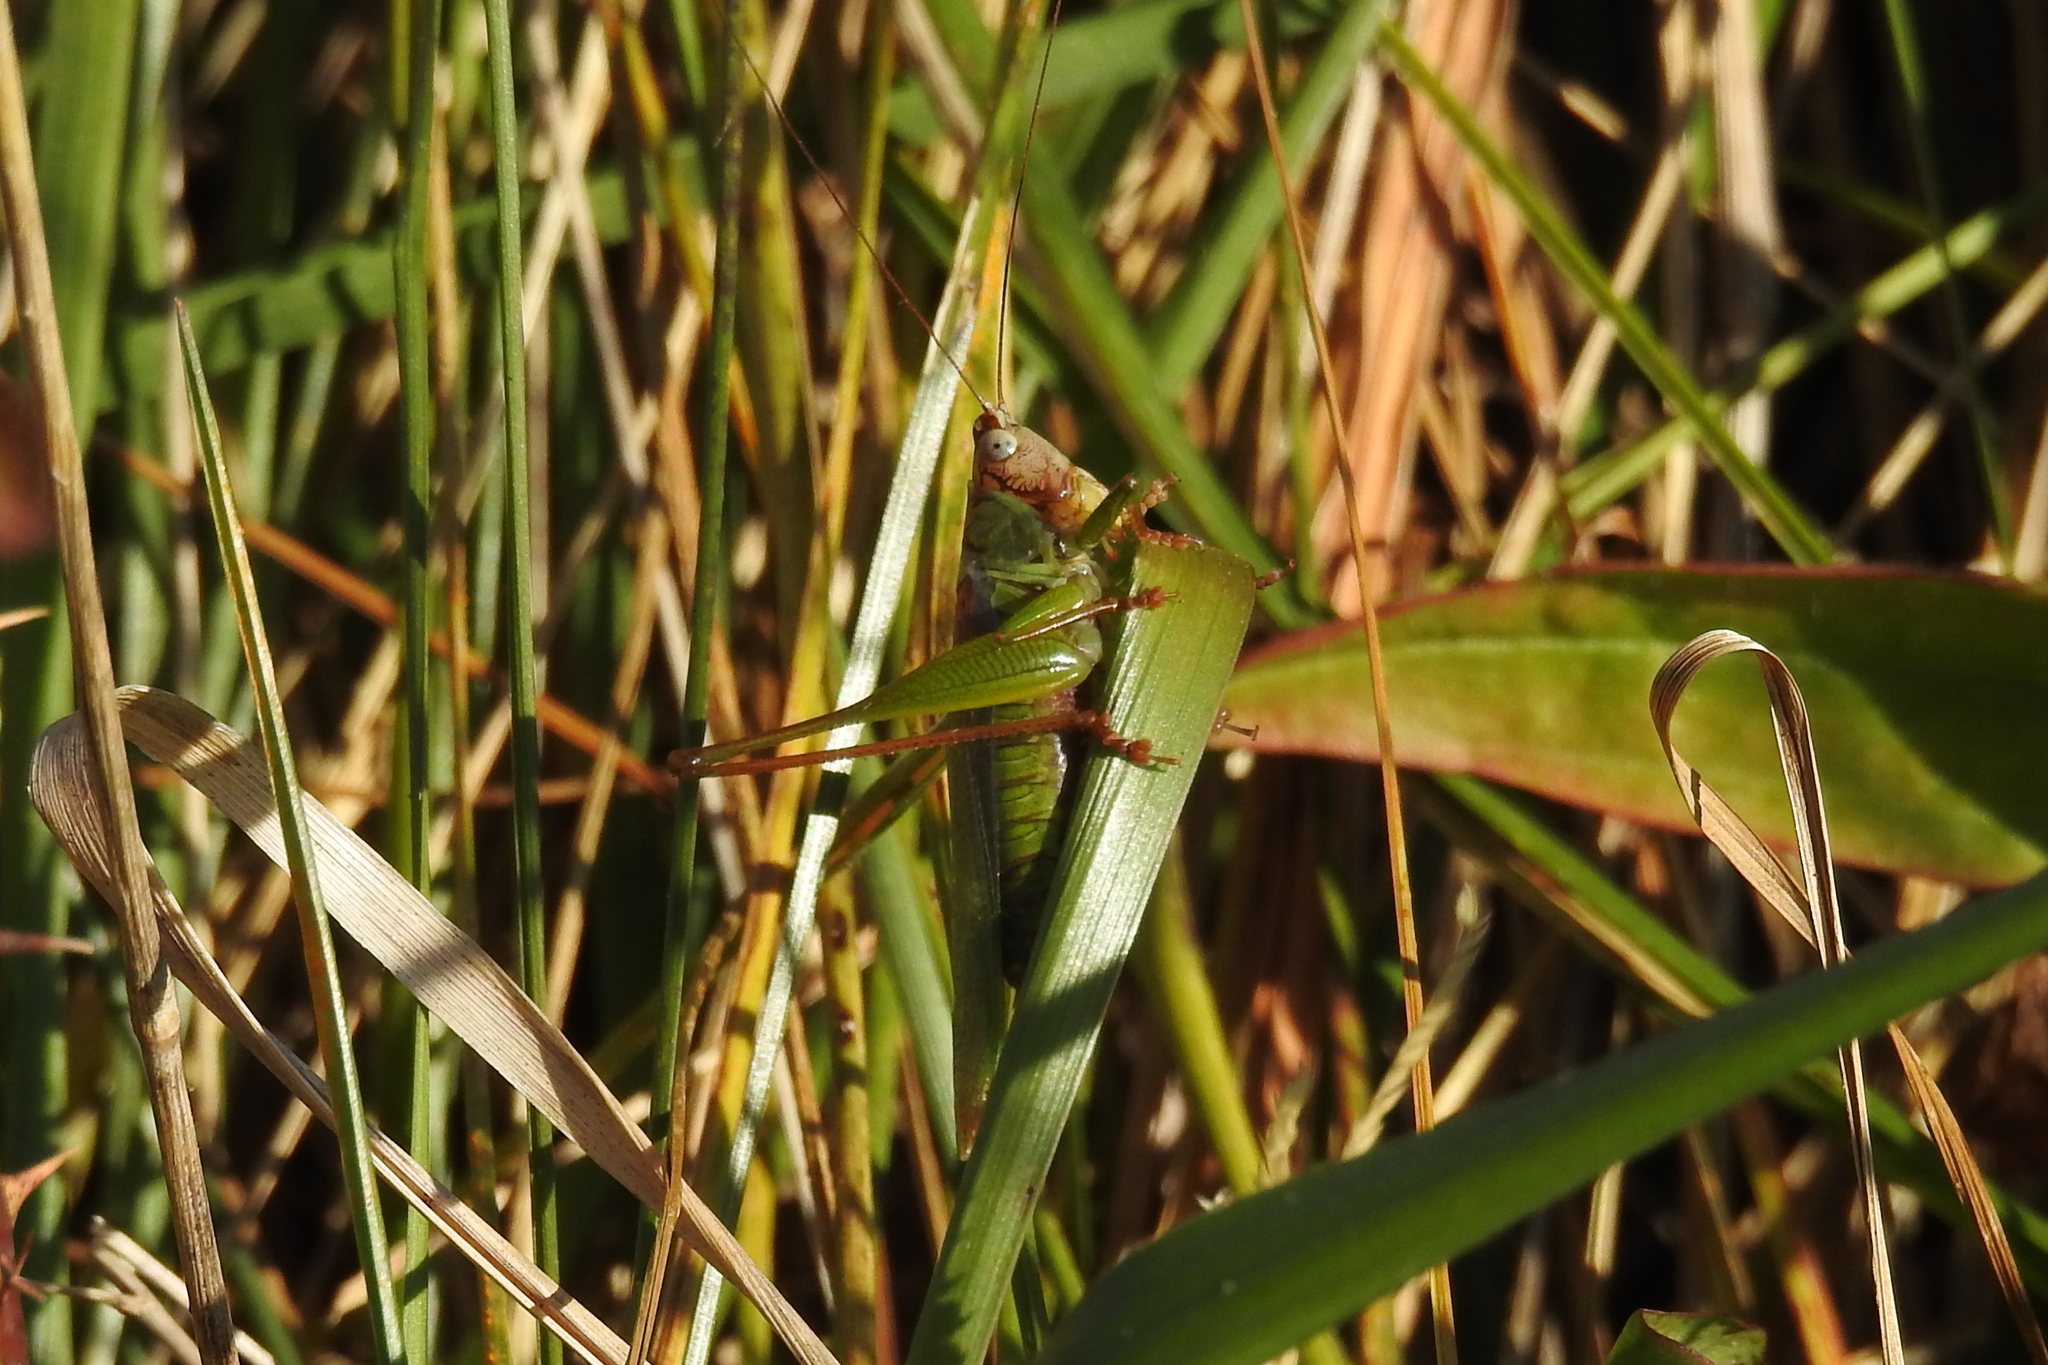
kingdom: Animalia
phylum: Arthropoda
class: Insecta
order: Orthoptera
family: Tettigoniidae
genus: Orchelimum
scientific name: Orchelimum pulchellum
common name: Handsome meadow katydid
